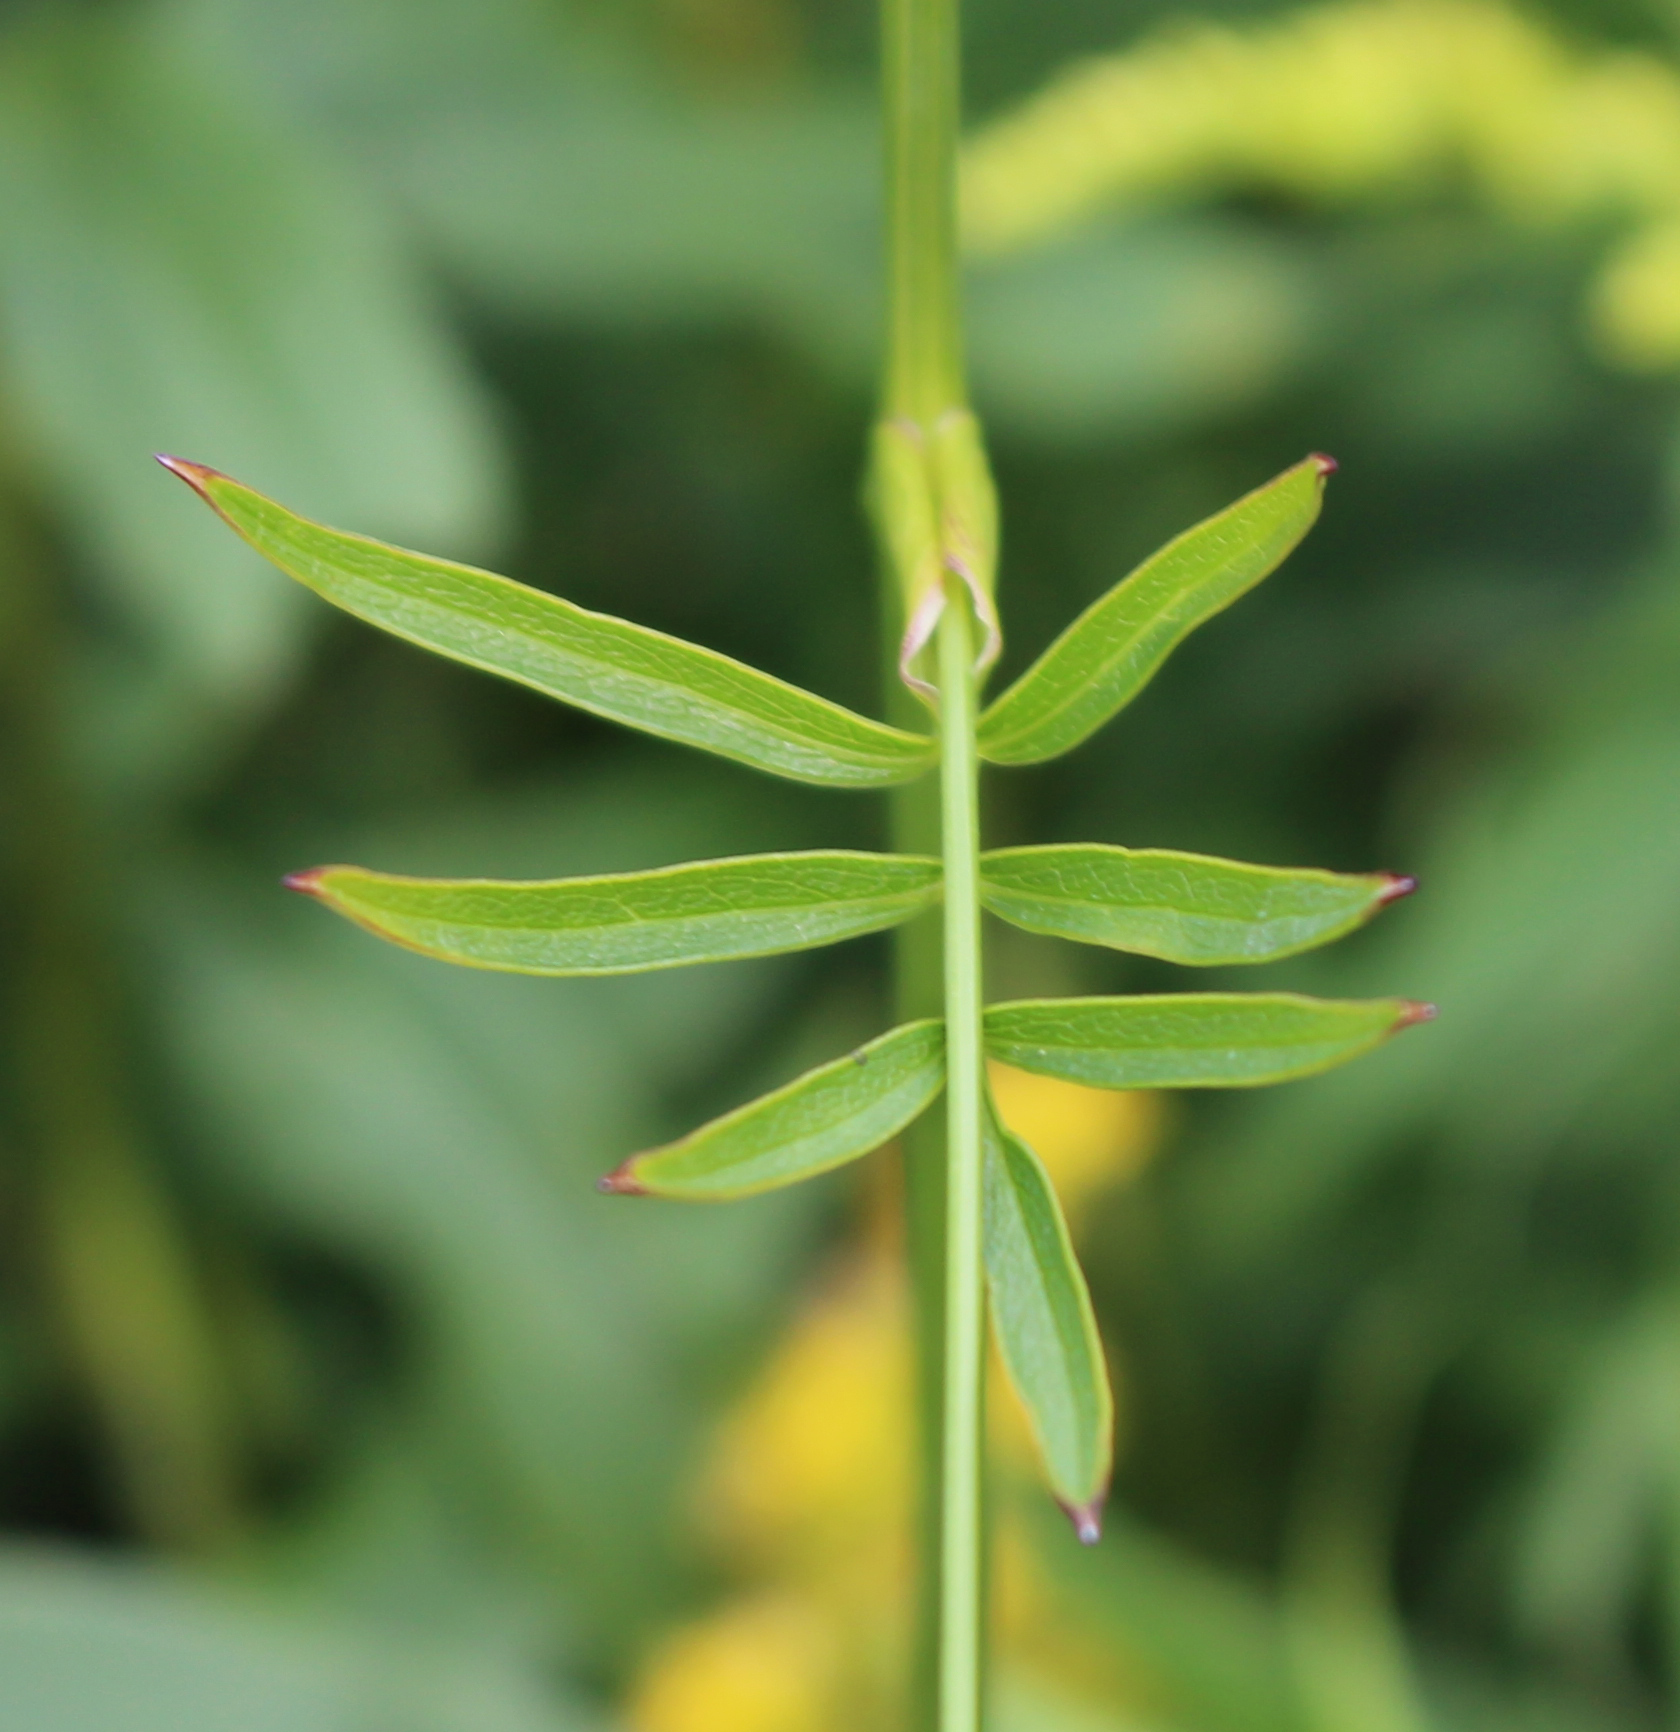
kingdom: Plantae
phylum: Tracheophyta
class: Magnoliopsida
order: Apiales
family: Apiaceae
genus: Oxypolis
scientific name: Oxypolis rigidior
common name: Cowbane
